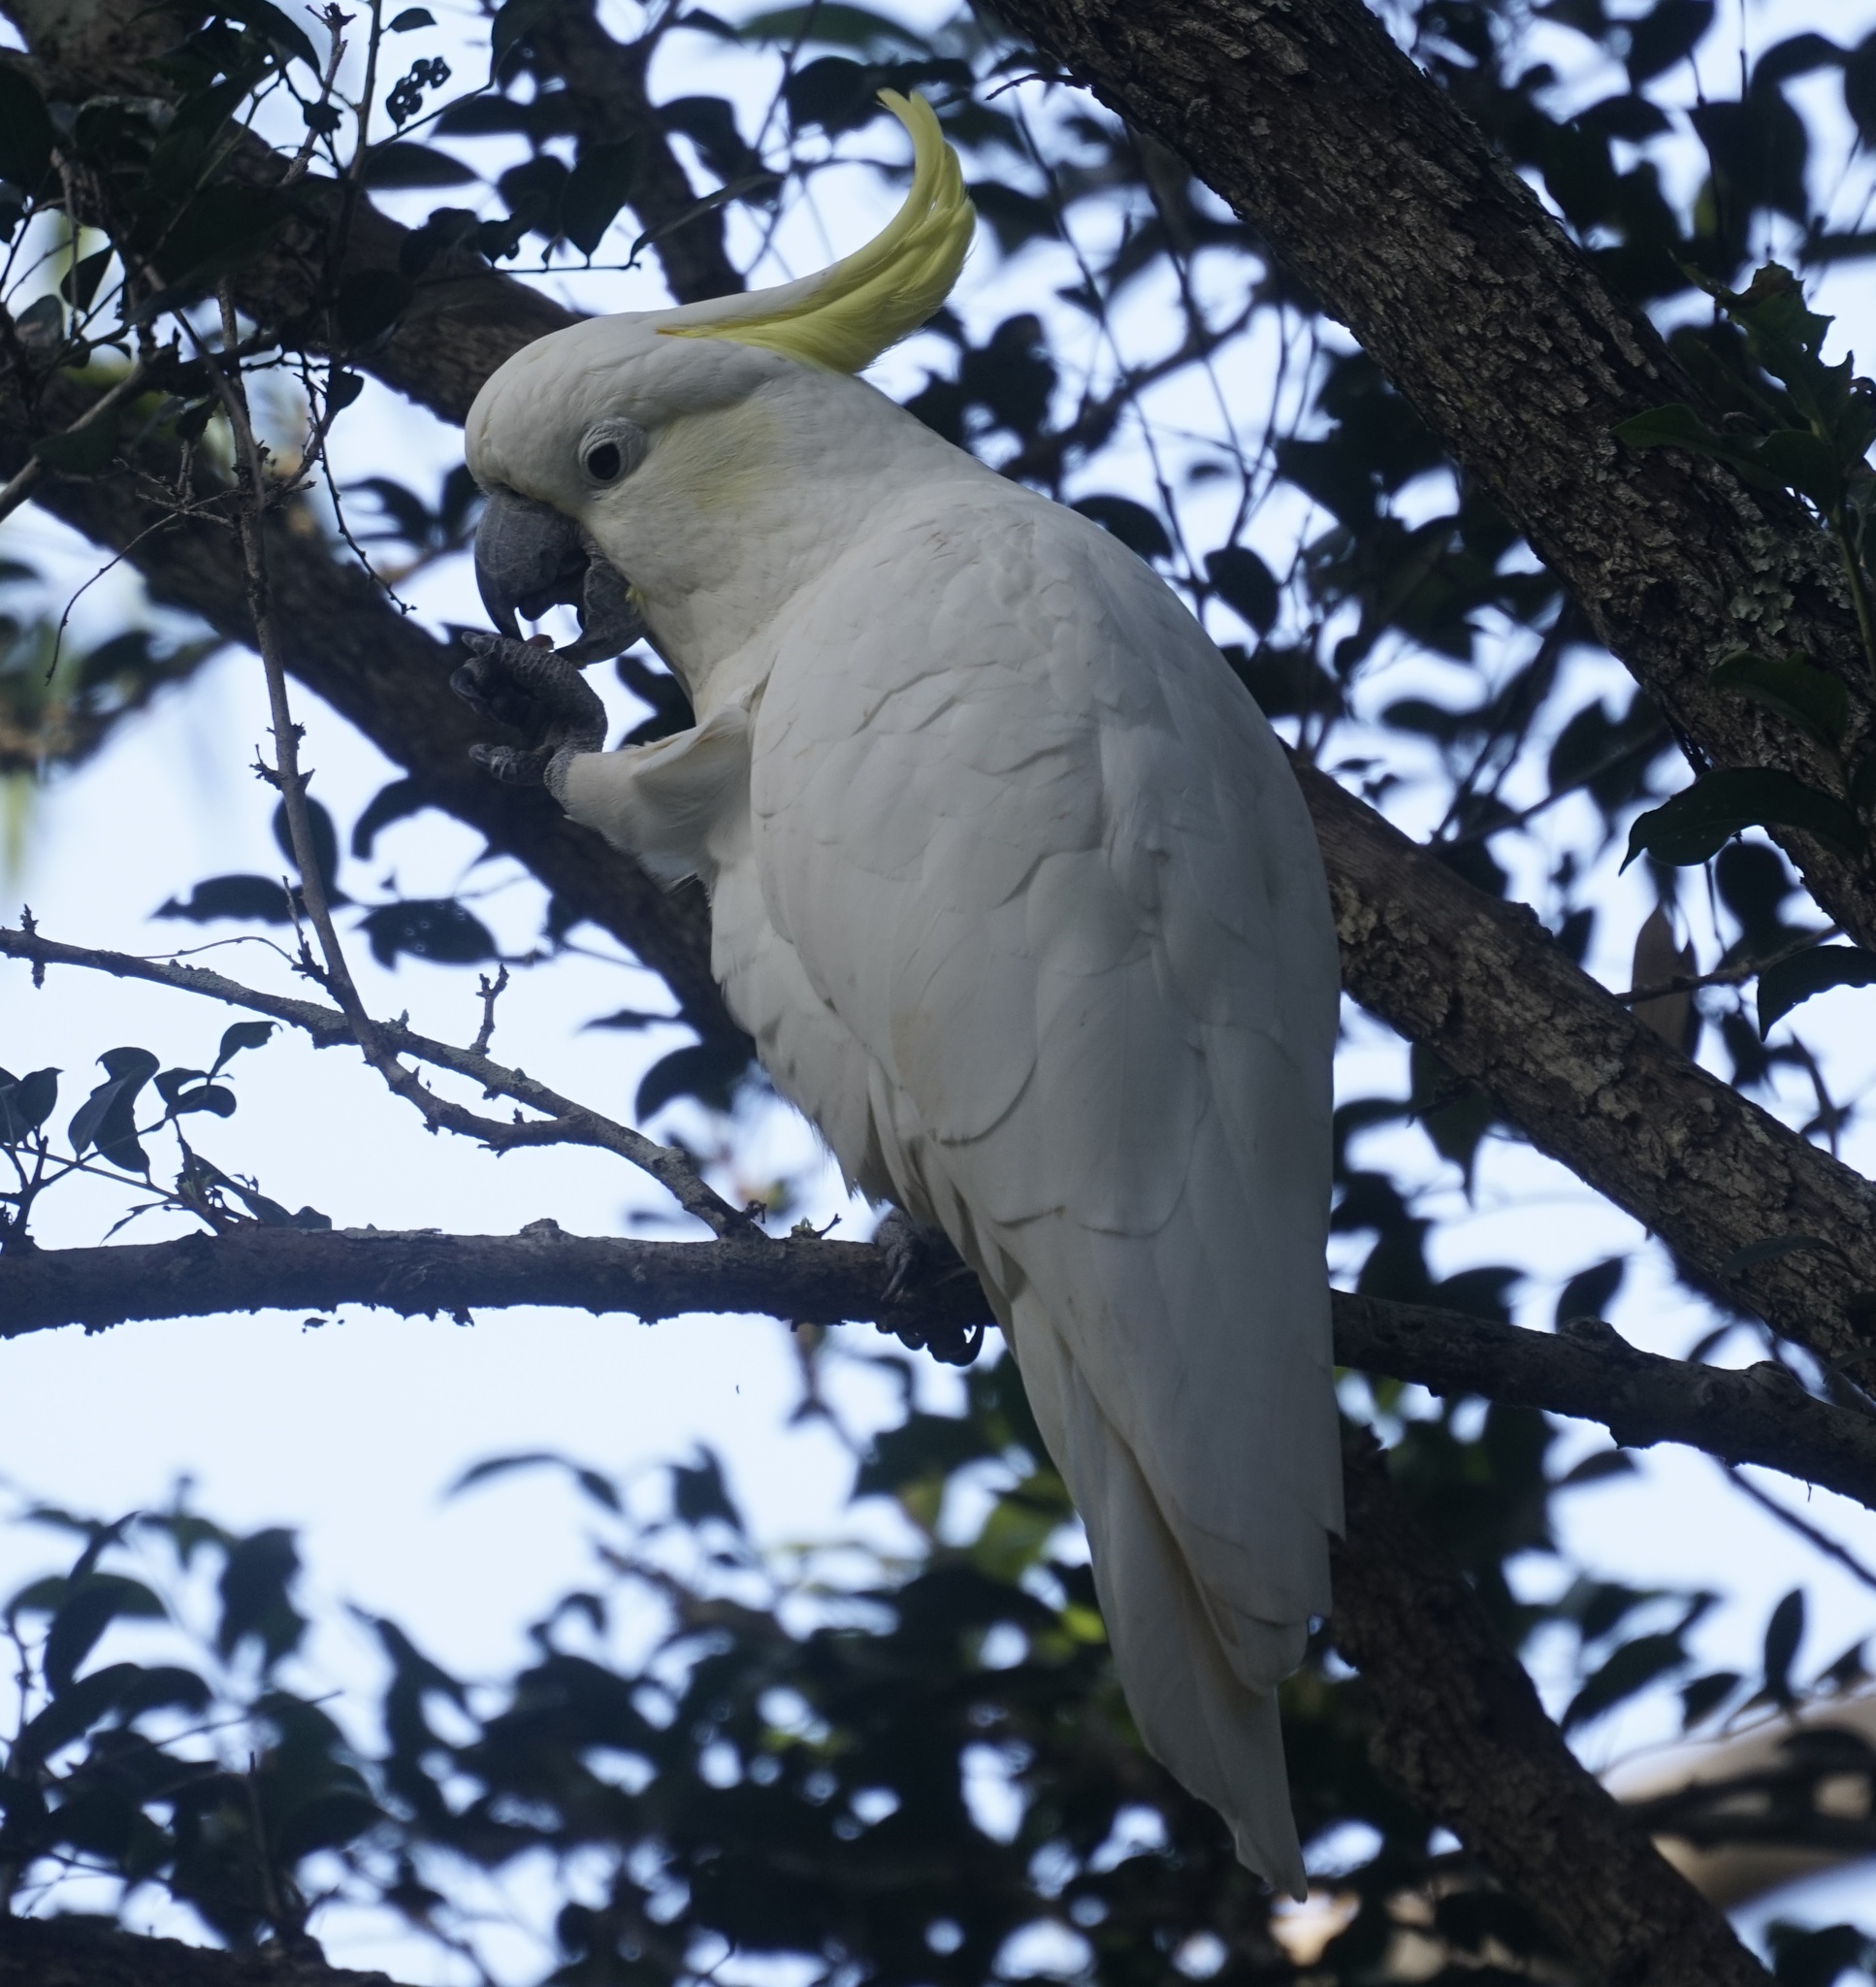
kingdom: Animalia
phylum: Chordata
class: Aves
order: Psittaciformes
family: Psittacidae
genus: Cacatua
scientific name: Cacatua galerita
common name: Sulphur-crested cockatoo
